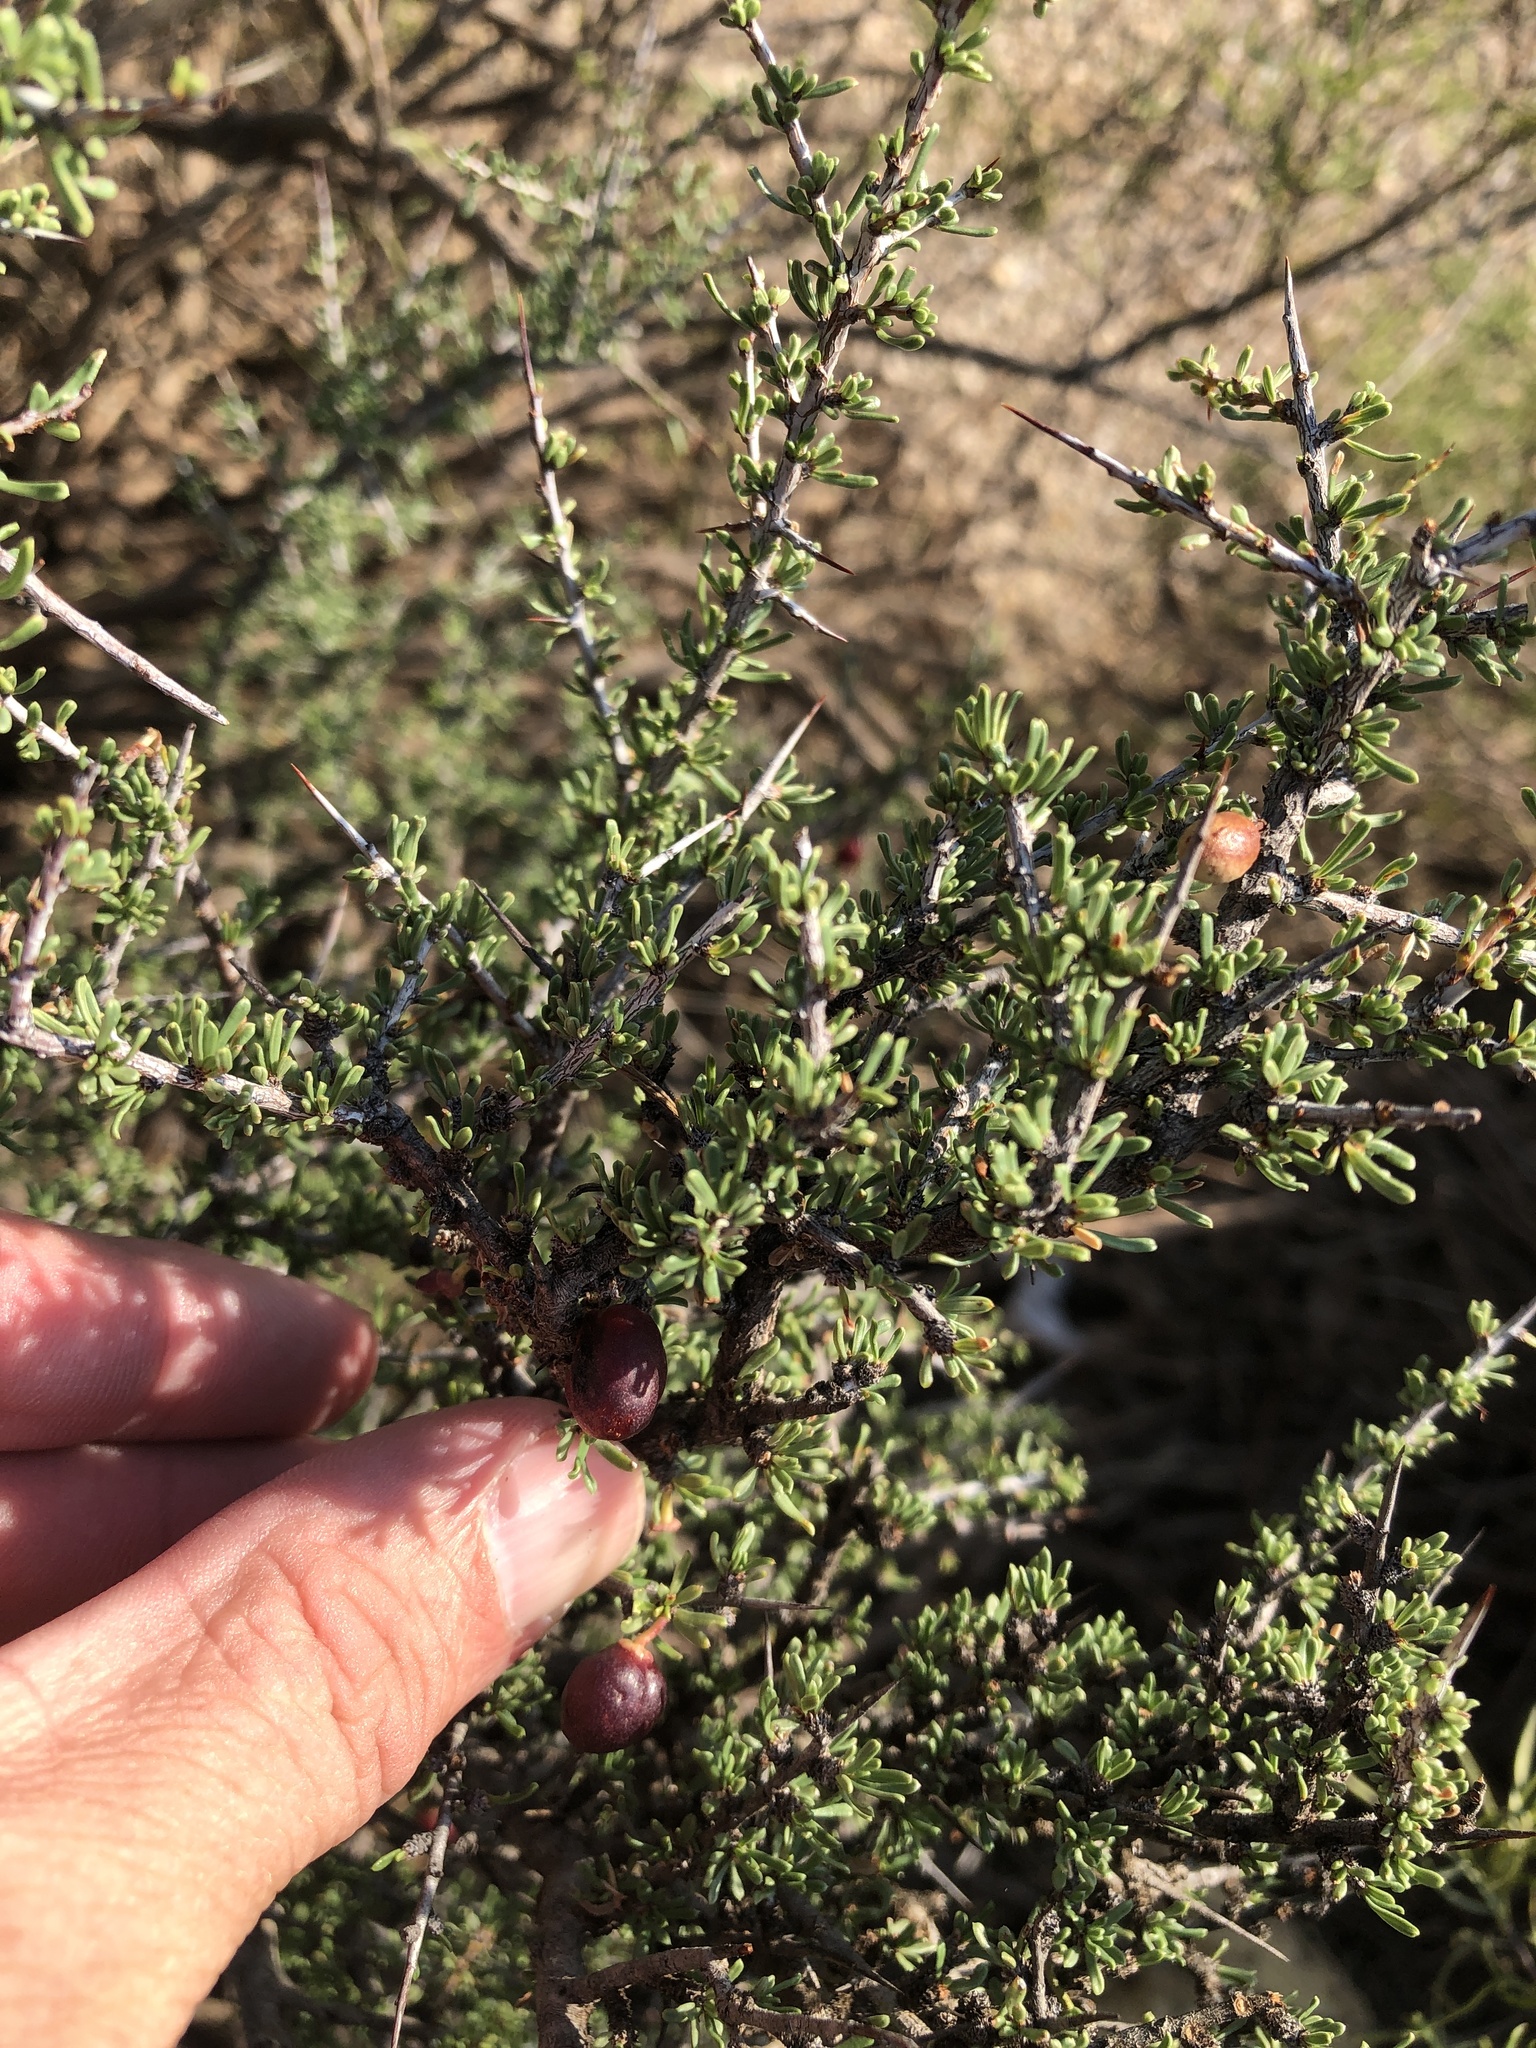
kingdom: Plantae
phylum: Tracheophyta
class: Magnoliopsida
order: Rosales
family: Rhamnaceae
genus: Condalia
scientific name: Condalia ericoides
